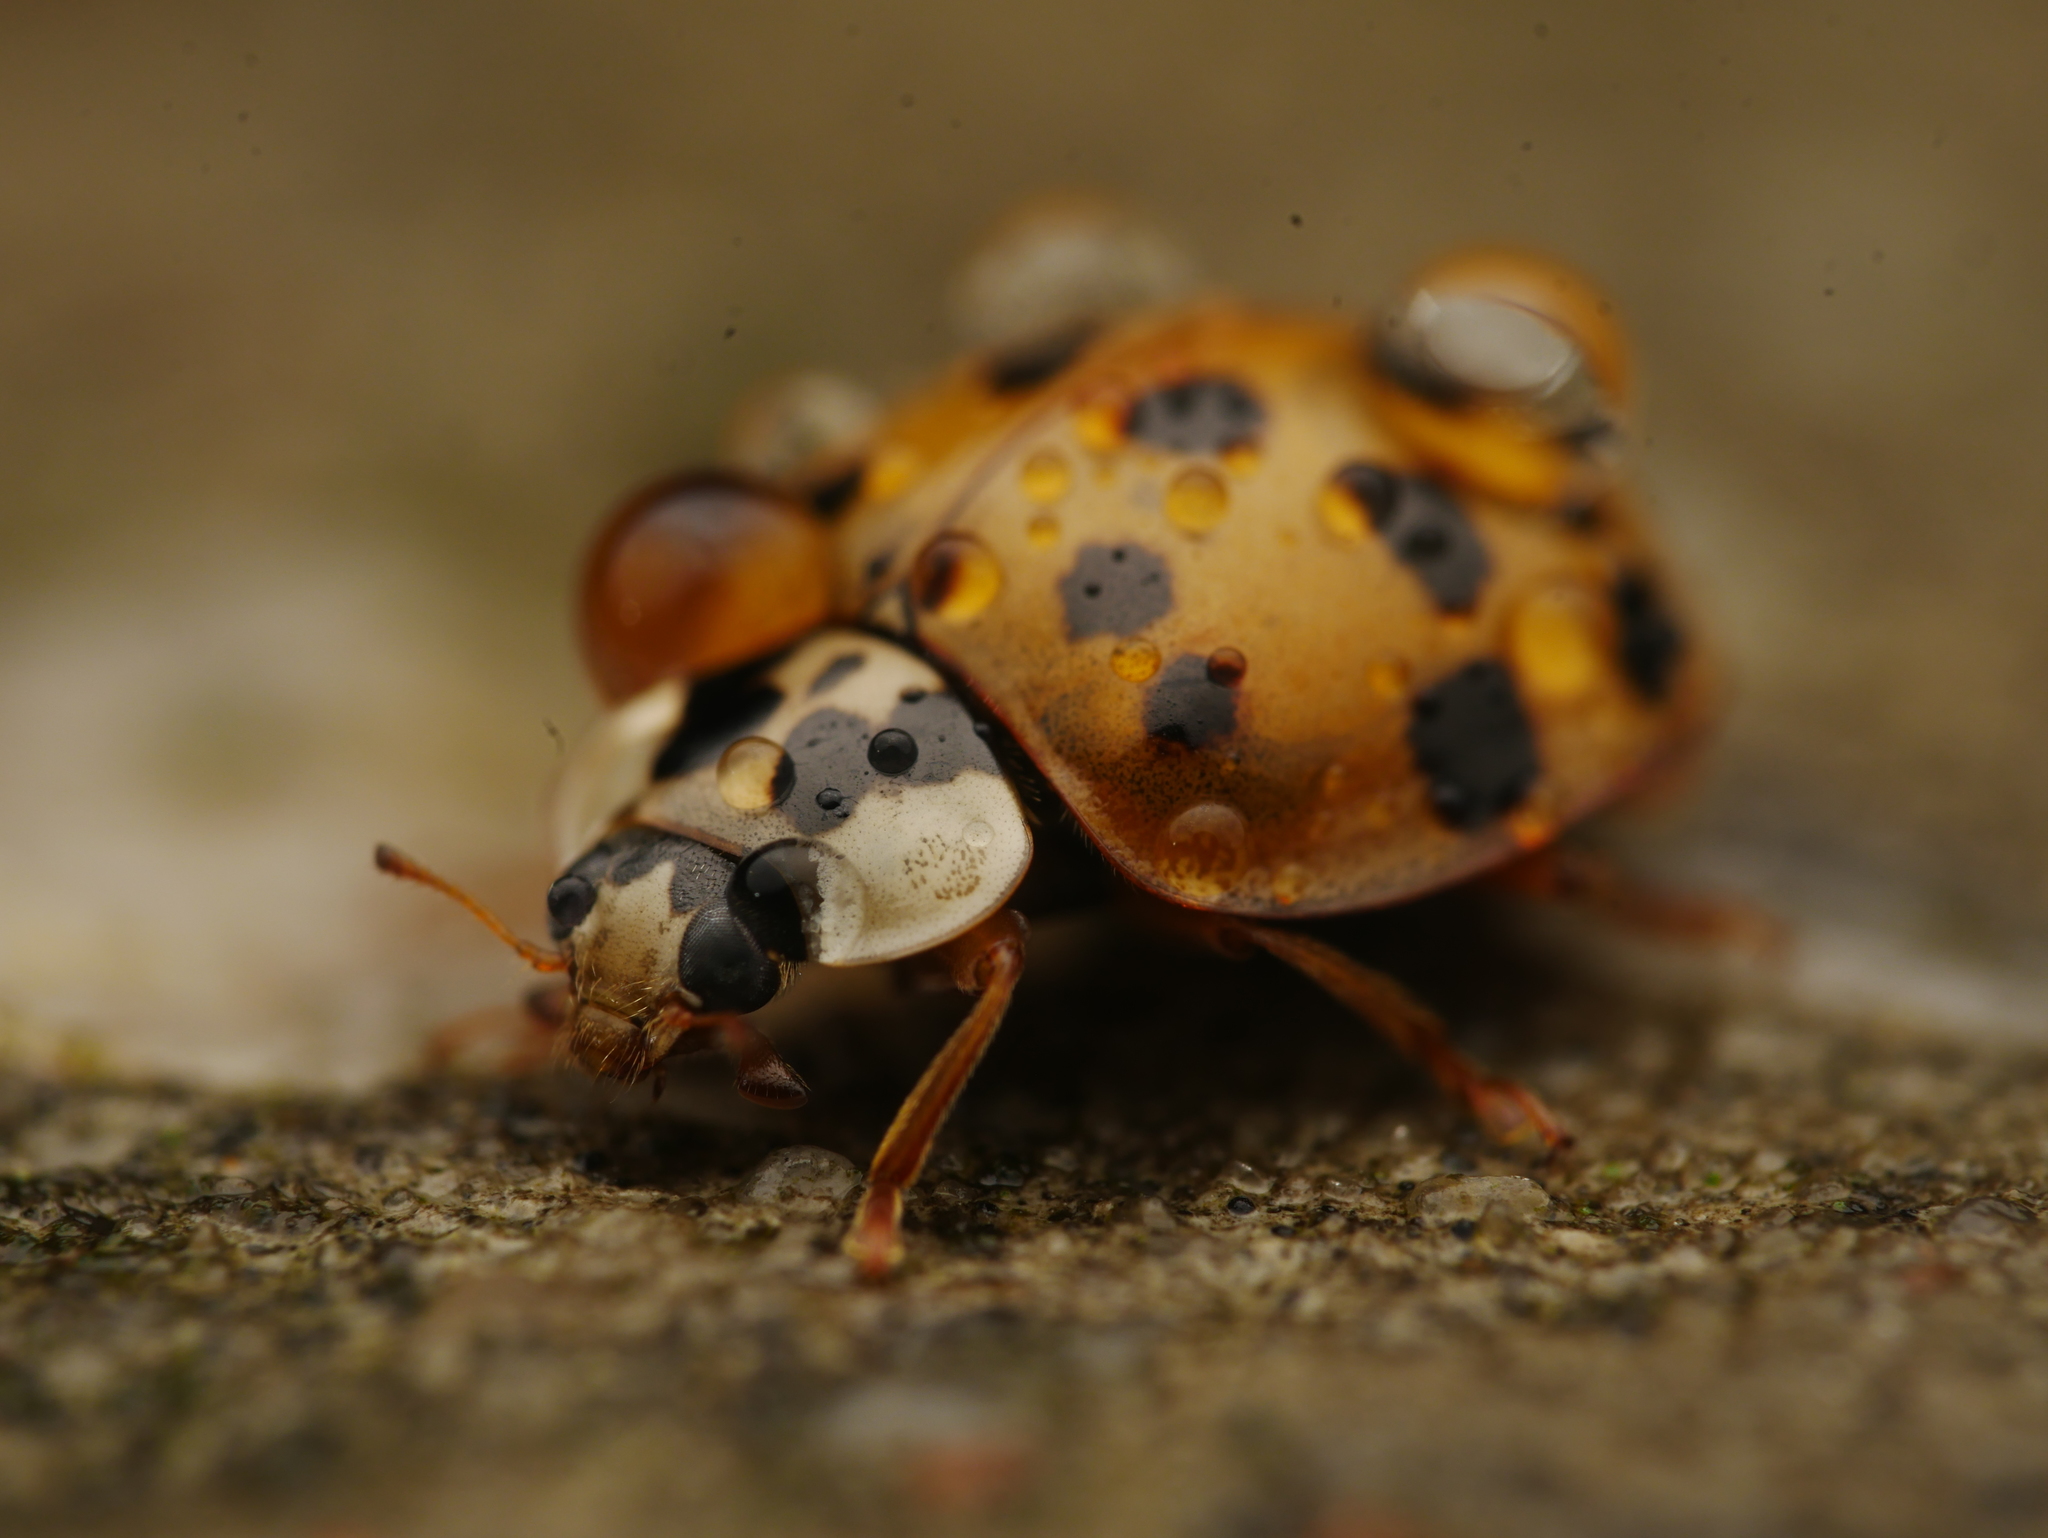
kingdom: Animalia
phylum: Arthropoda
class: Insecta
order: Coleoptera
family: Coccinellidae
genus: Harmonia
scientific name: Harmonia axyridis
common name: Harlequin ladybird
